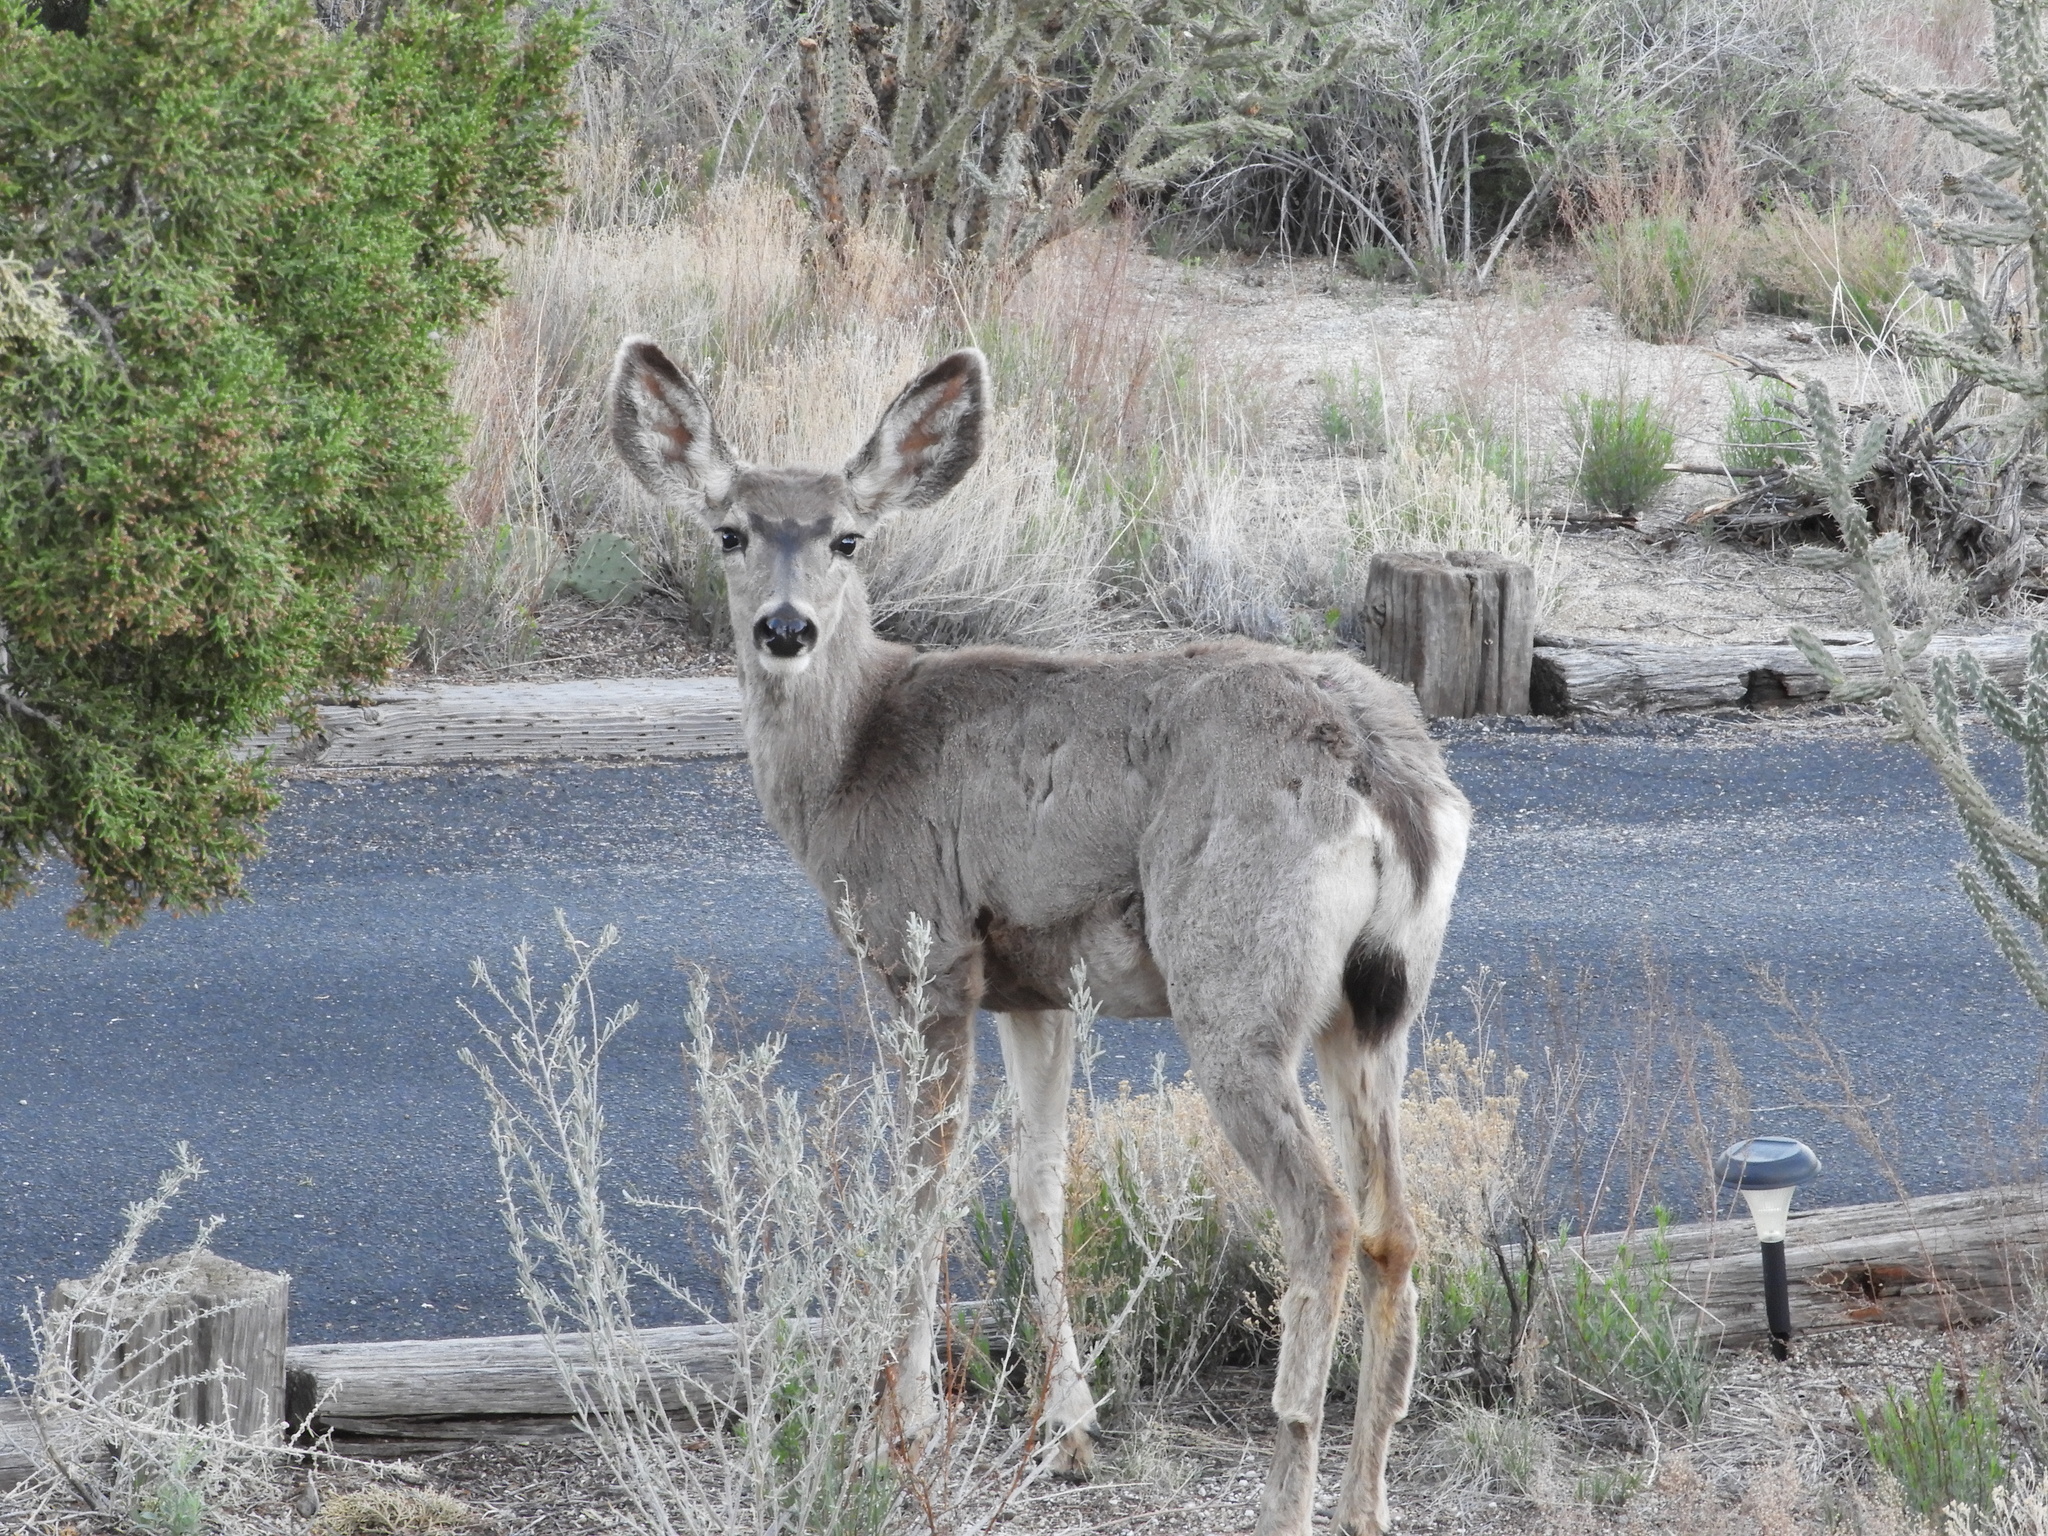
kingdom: Animalia
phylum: Chordata
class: Mammalia
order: Artiodactyla
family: Cervidae
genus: Odocoileus
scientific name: Odocoileus hemionus
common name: Mule deer
